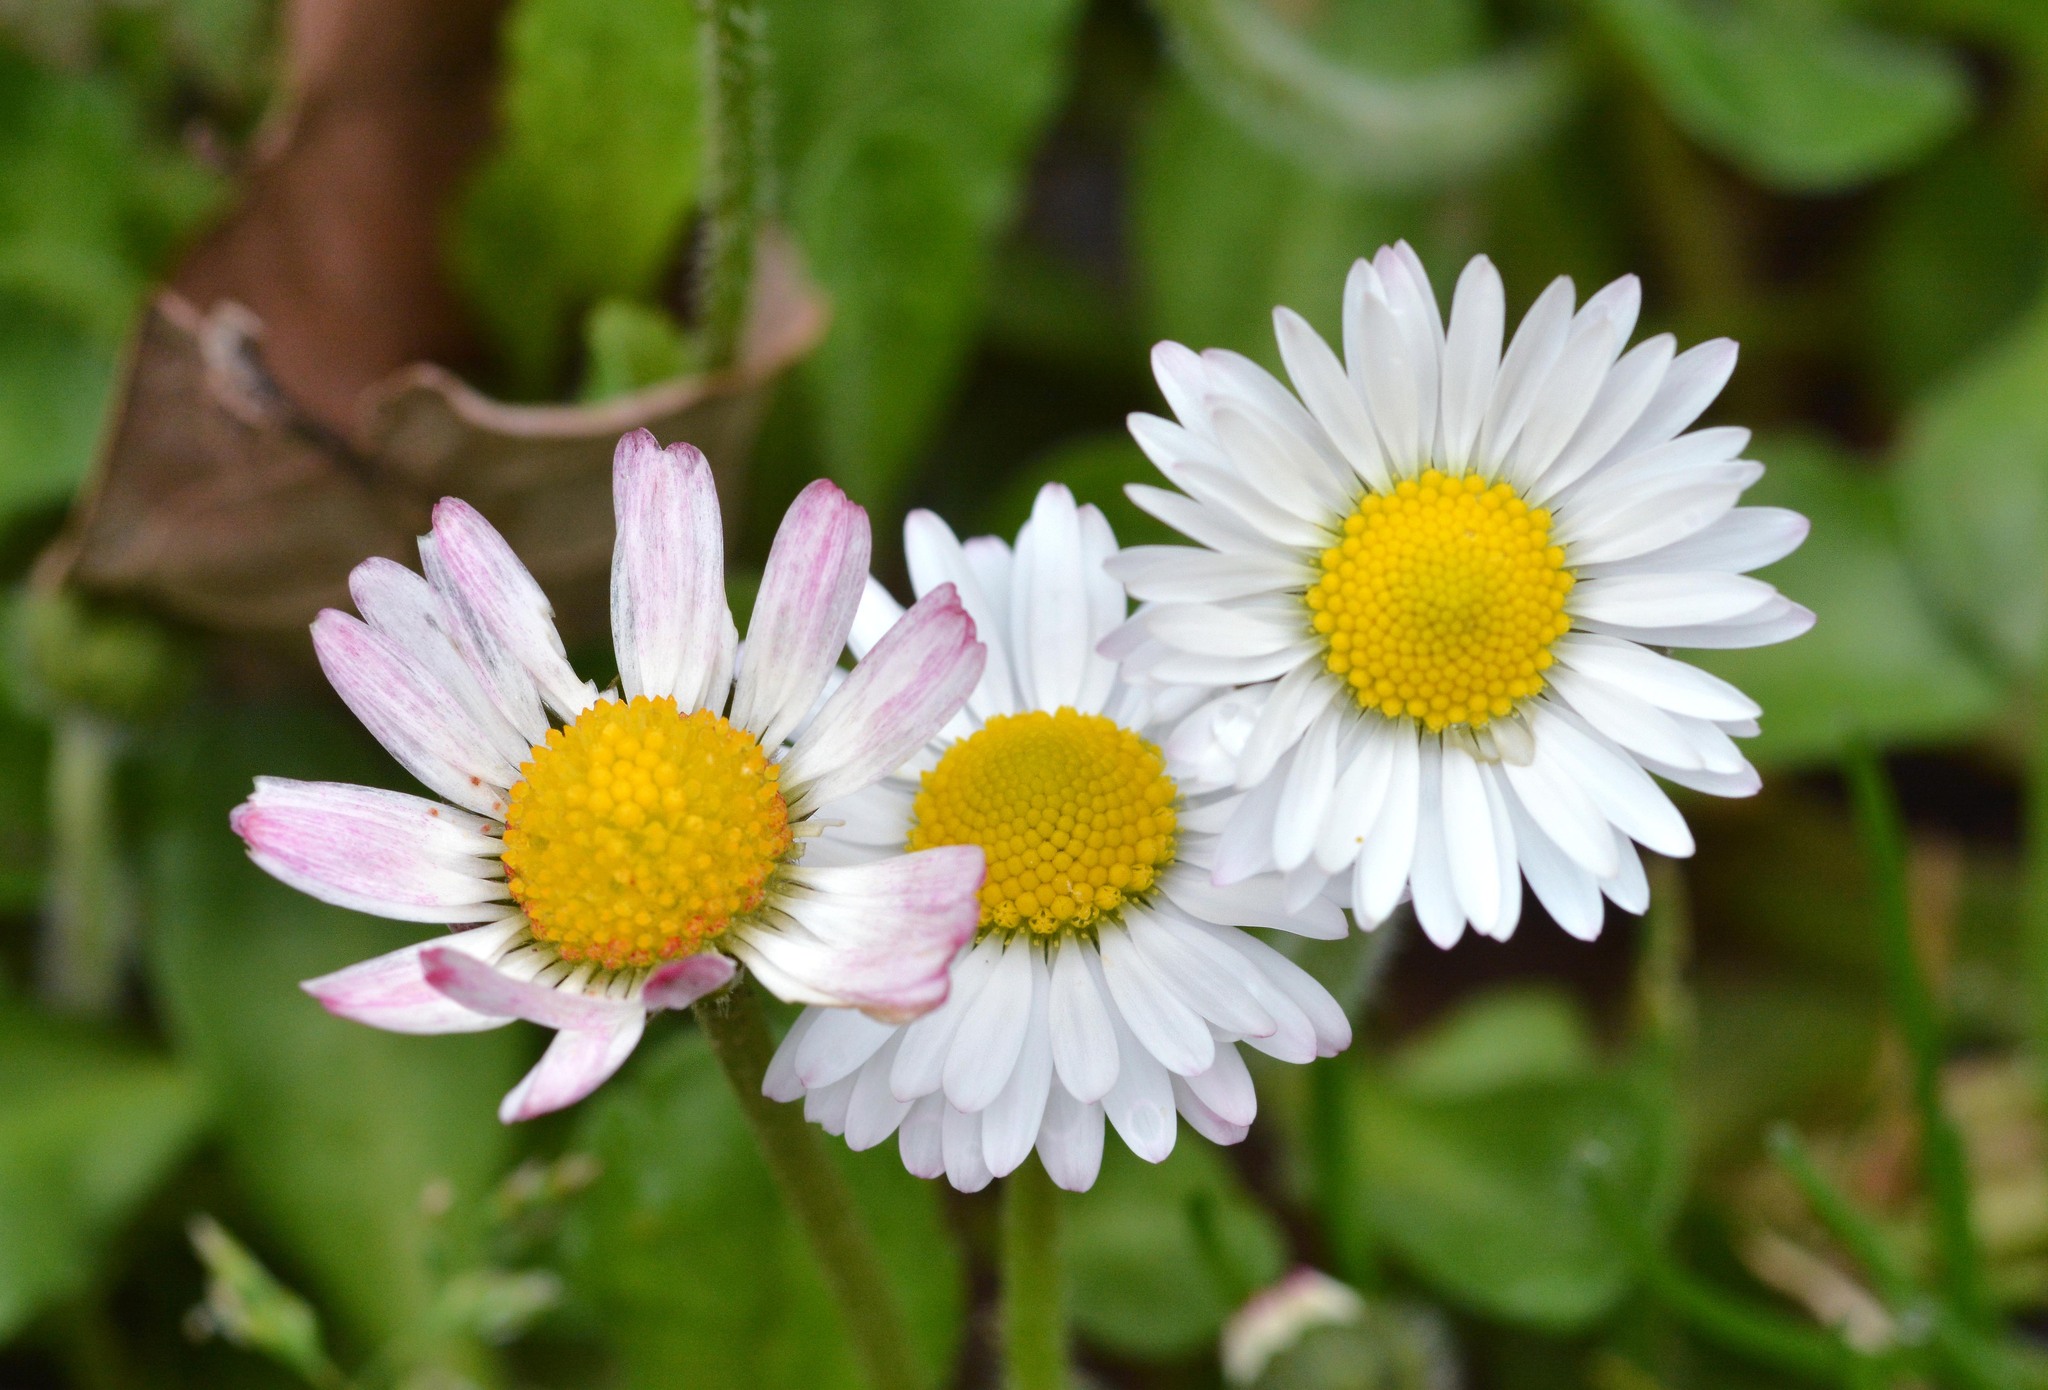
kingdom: Plantae
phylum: Tracheophyta
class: Magnoliopsida
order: Asterales
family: Asteraceae
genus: Bellis
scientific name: Bellis perennis
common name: Lawndaisy
